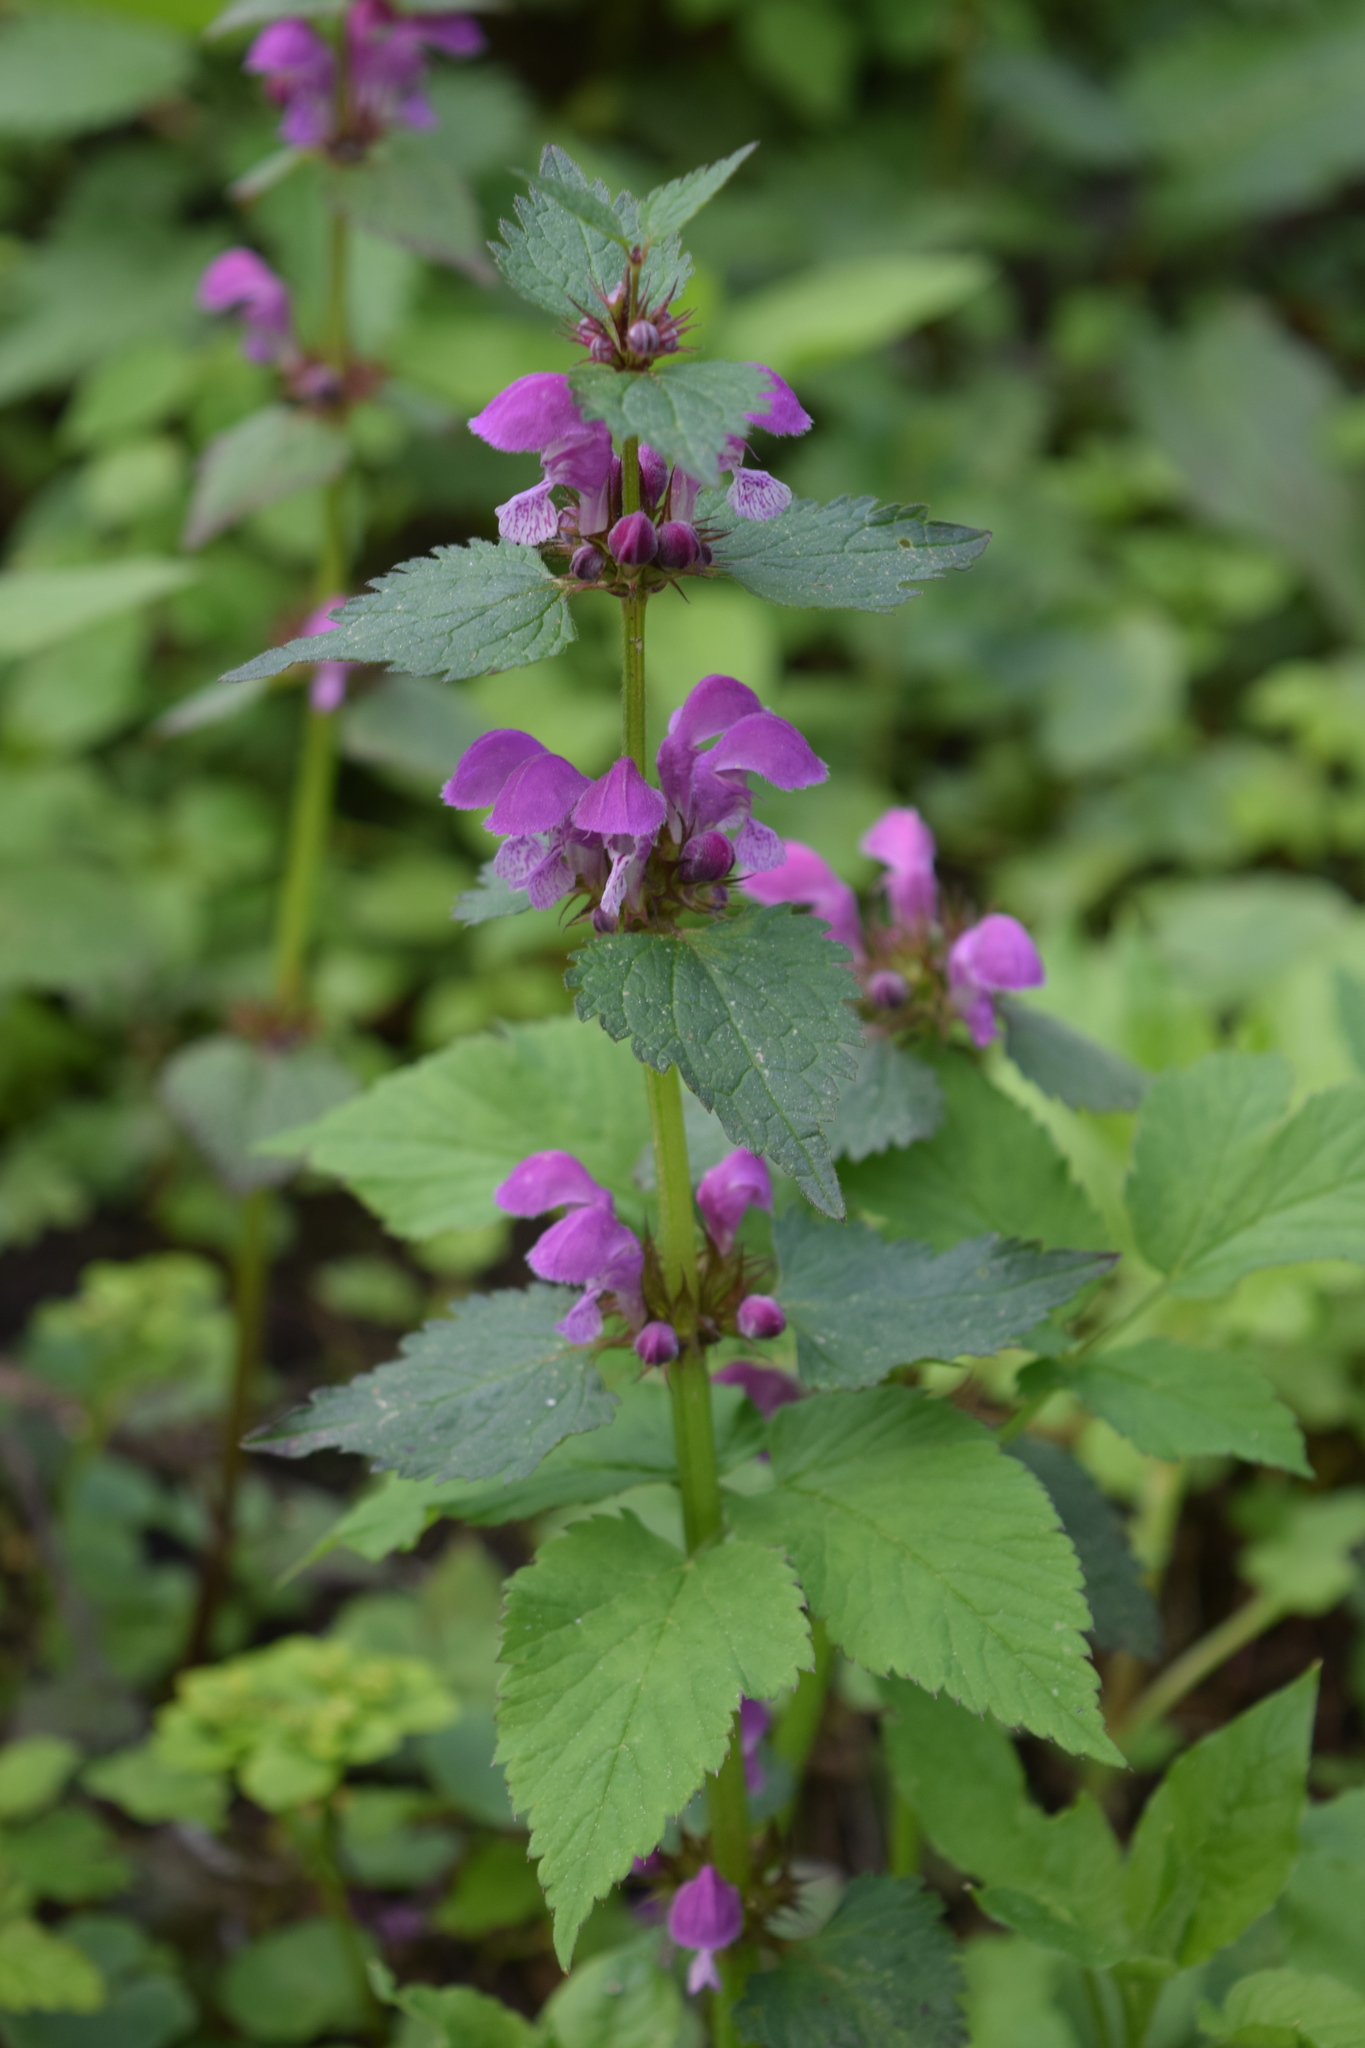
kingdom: Plantae
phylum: Tracheophyta
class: Magnoliopsida
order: Lamiales
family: Lamiaceae
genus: Lamium
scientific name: Lamium maculatum
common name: Spotted dead-nettle
